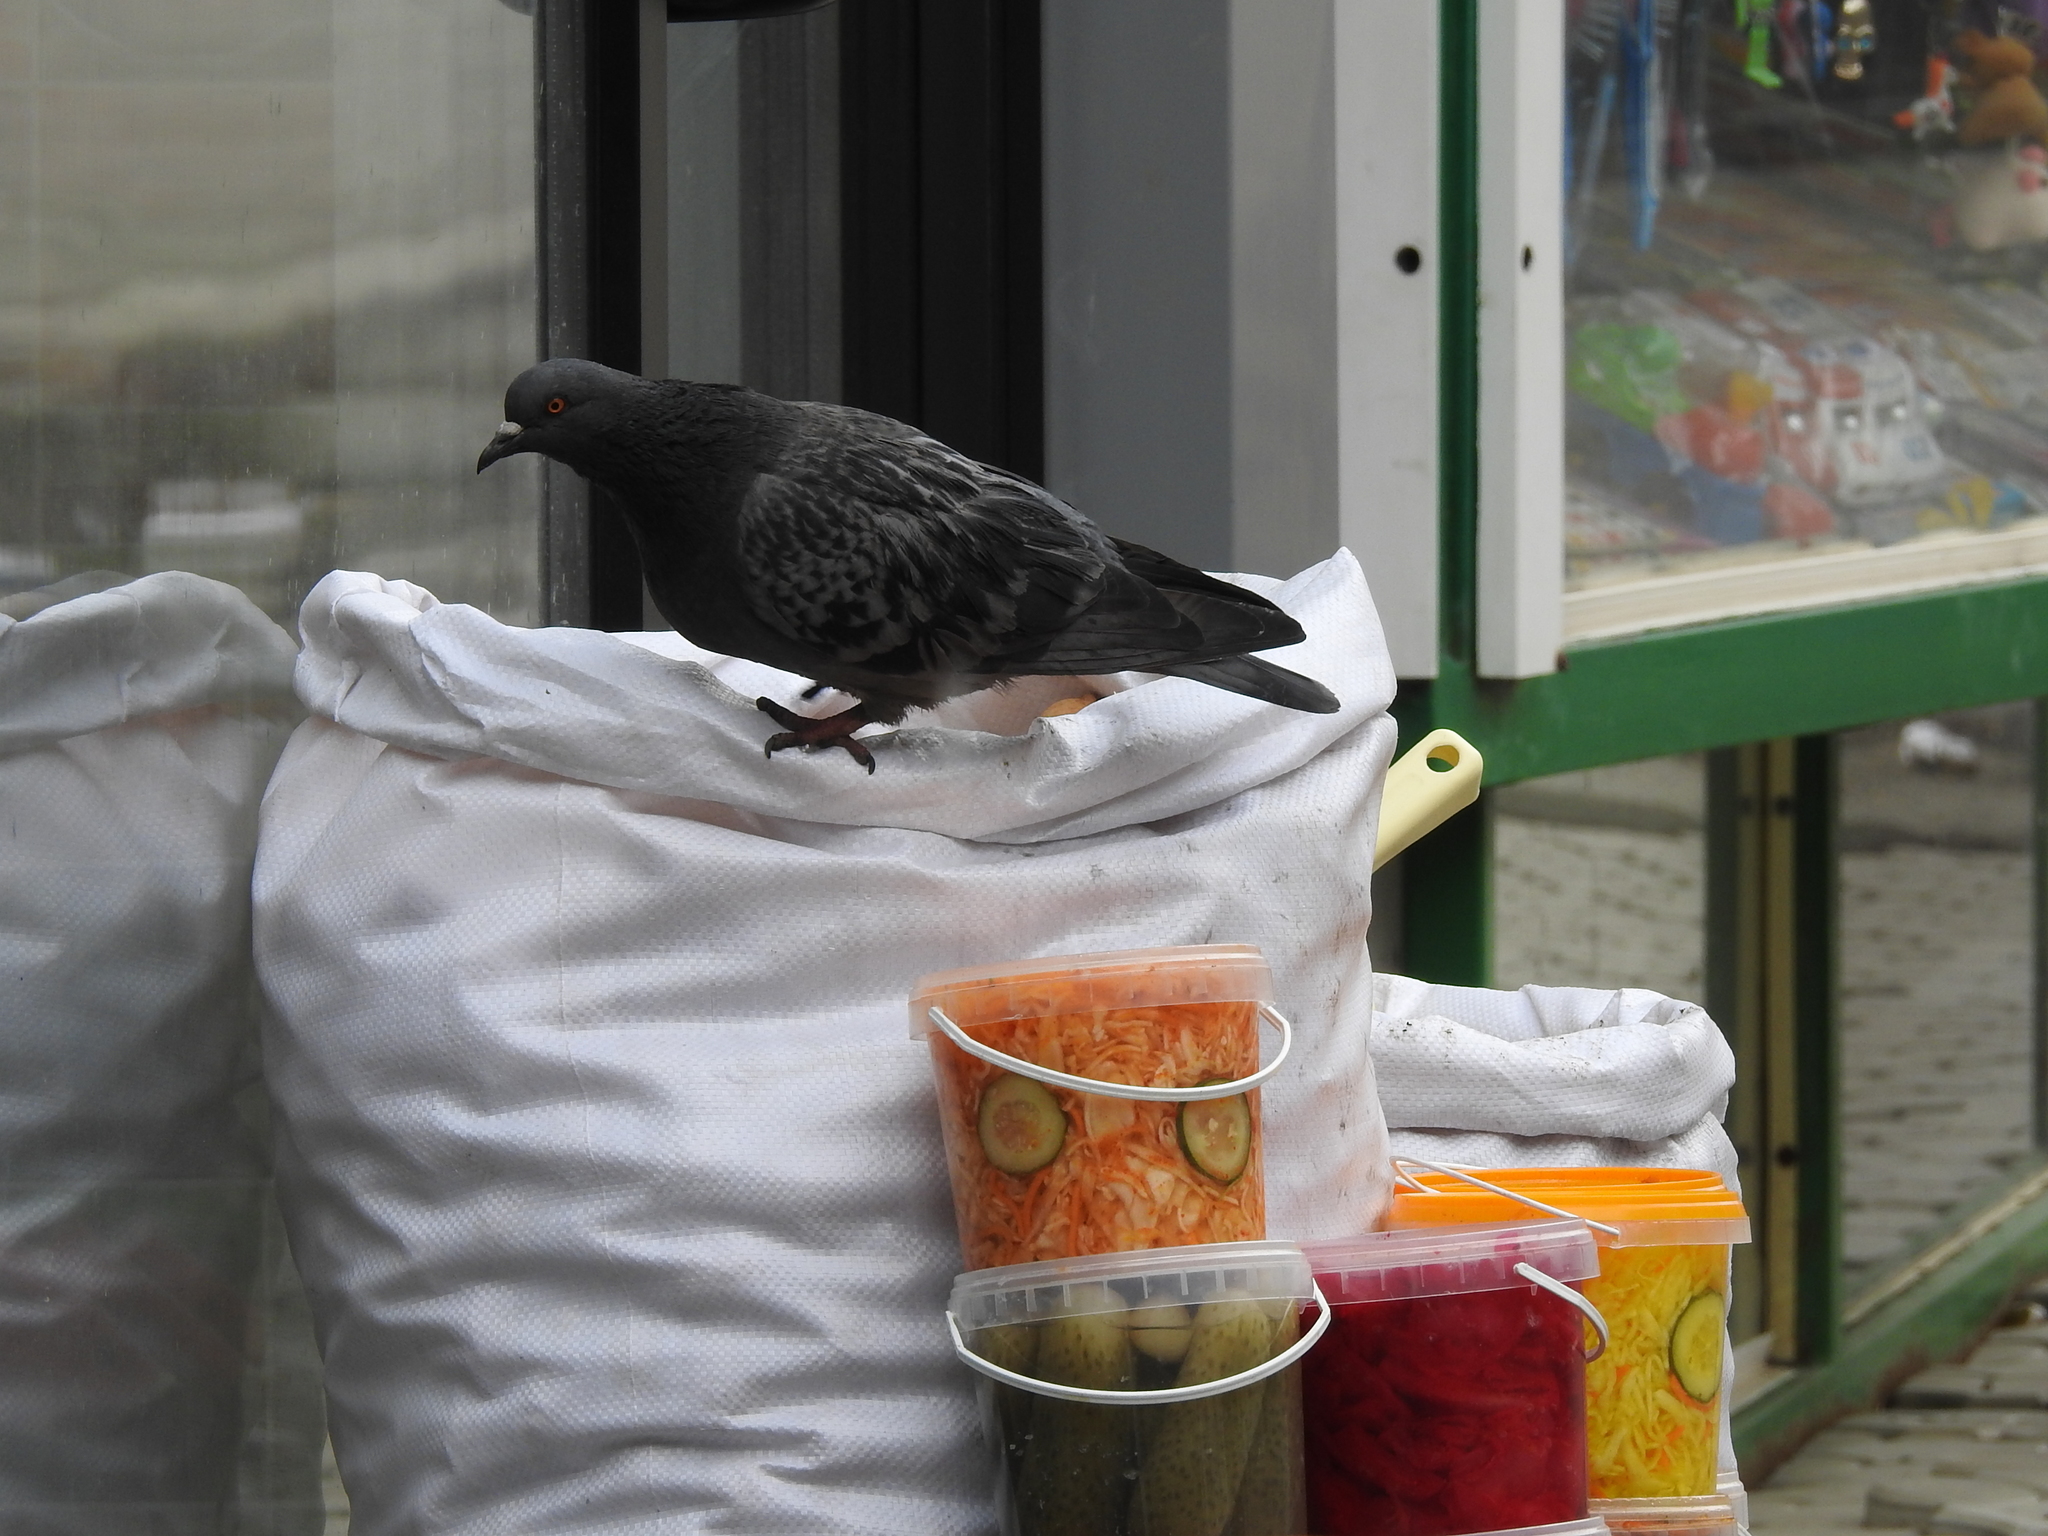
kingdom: Animalia
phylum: Chordata
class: Aves
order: Columbiformes
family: Columbidae
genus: Columba
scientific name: Columba livia
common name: Rock pigeon
